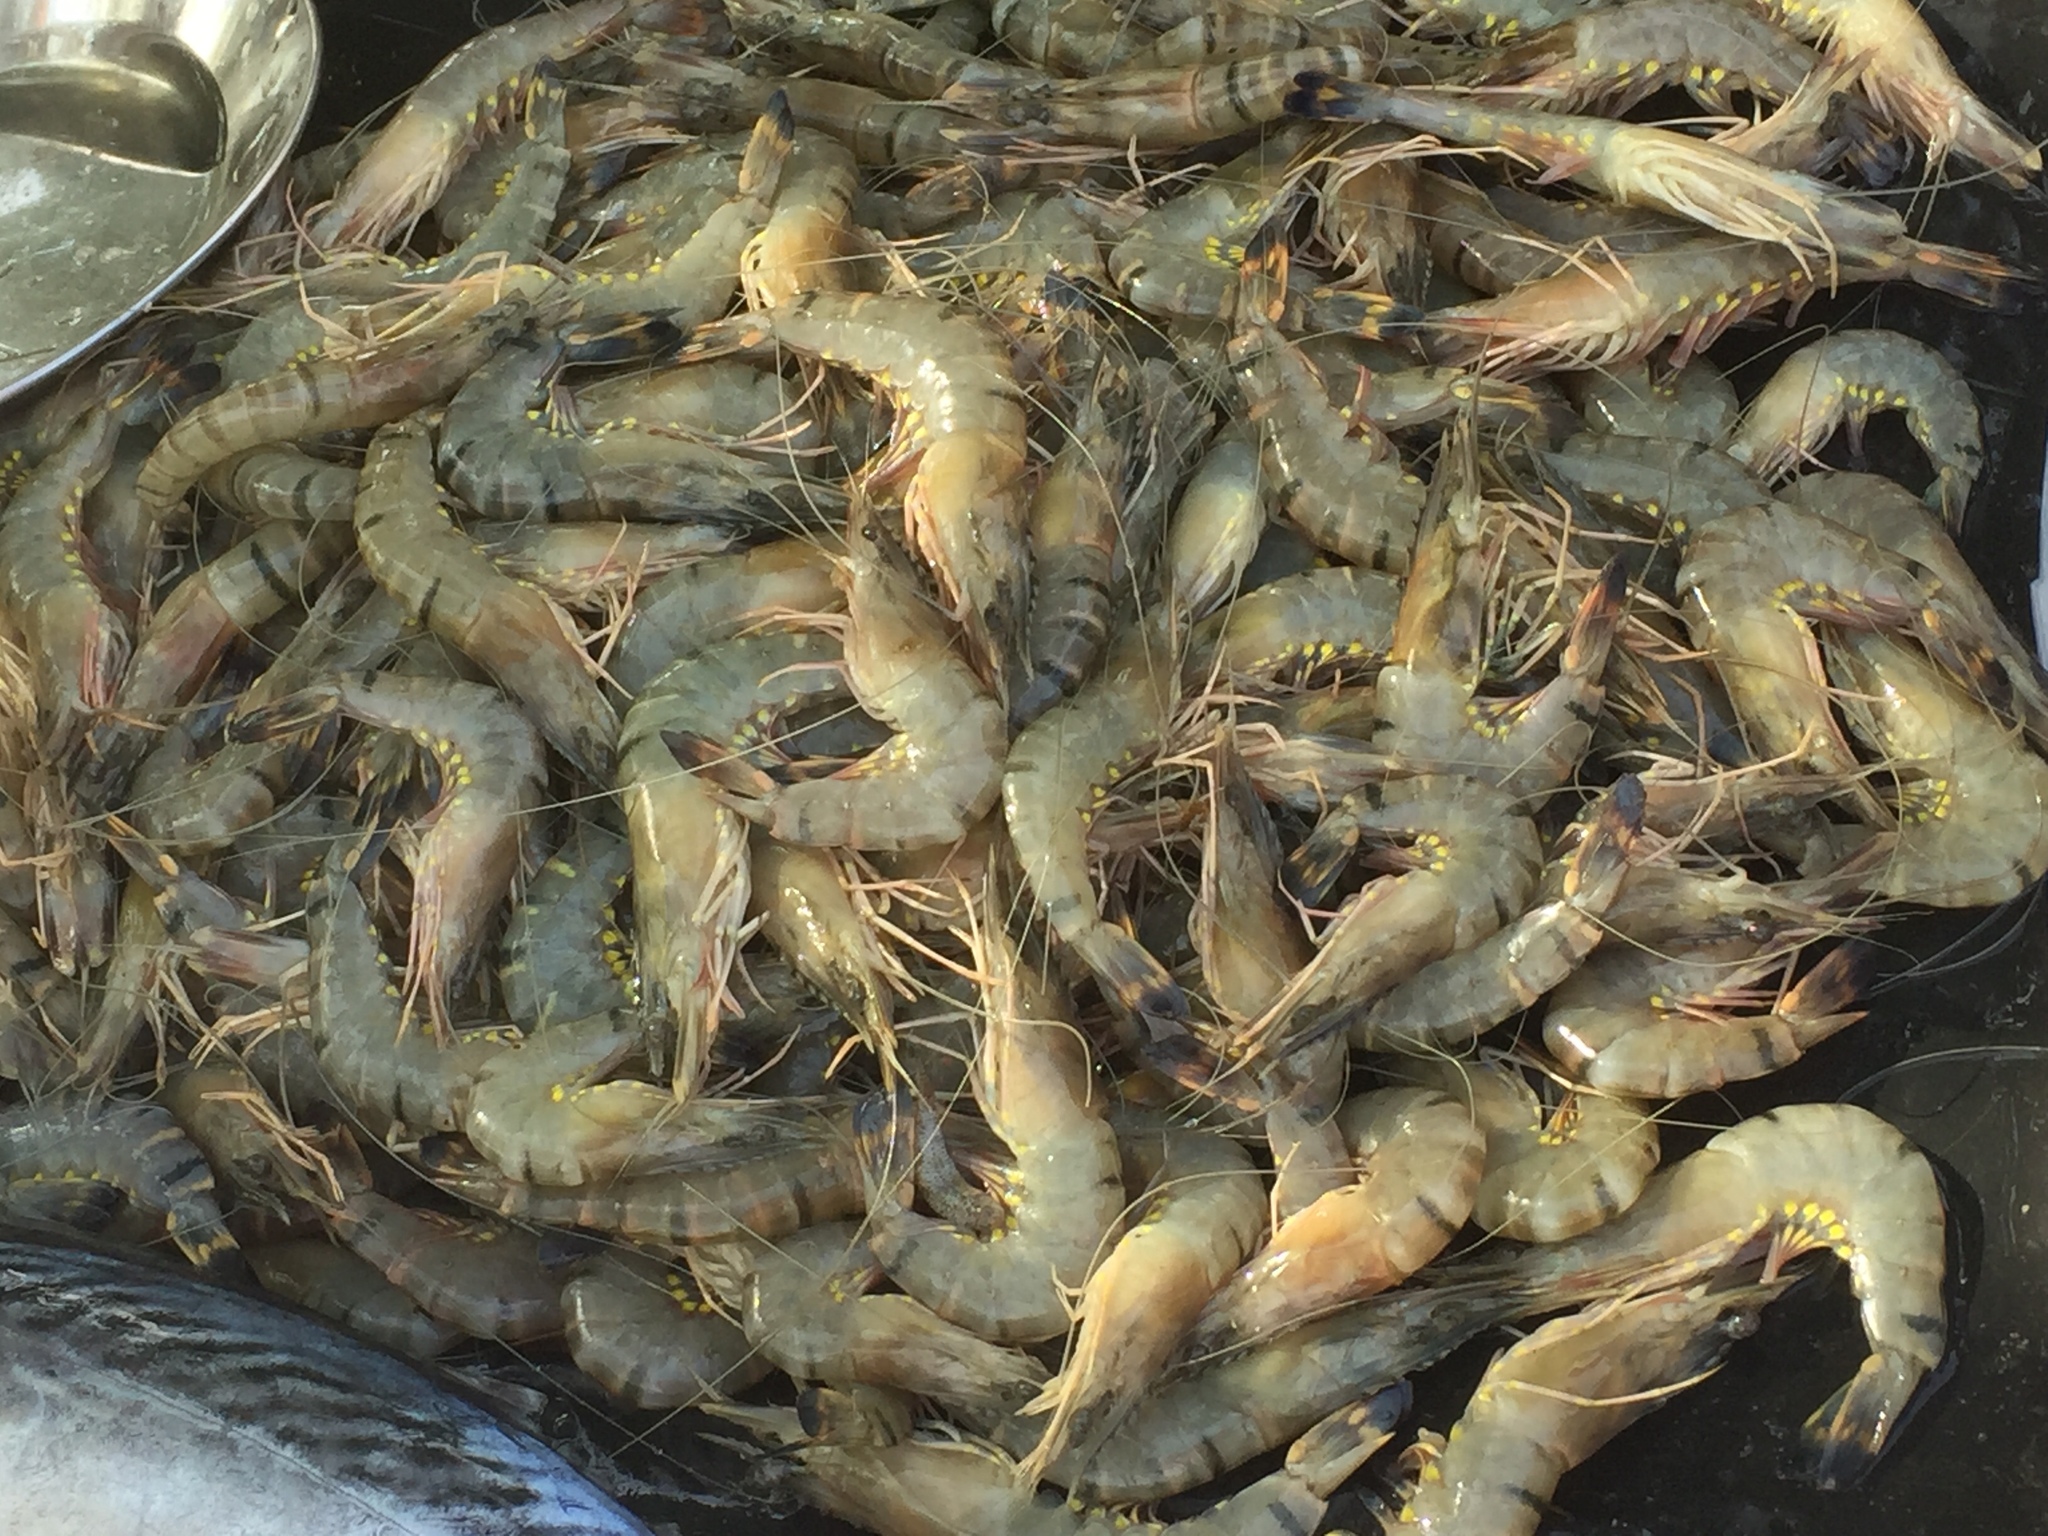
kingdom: Animalia
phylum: Arthropoda
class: Malacostraca
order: Decapoda
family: Penaeidae
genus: Penaeus
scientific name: Penaeus monodon
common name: Giant tiger prawn
